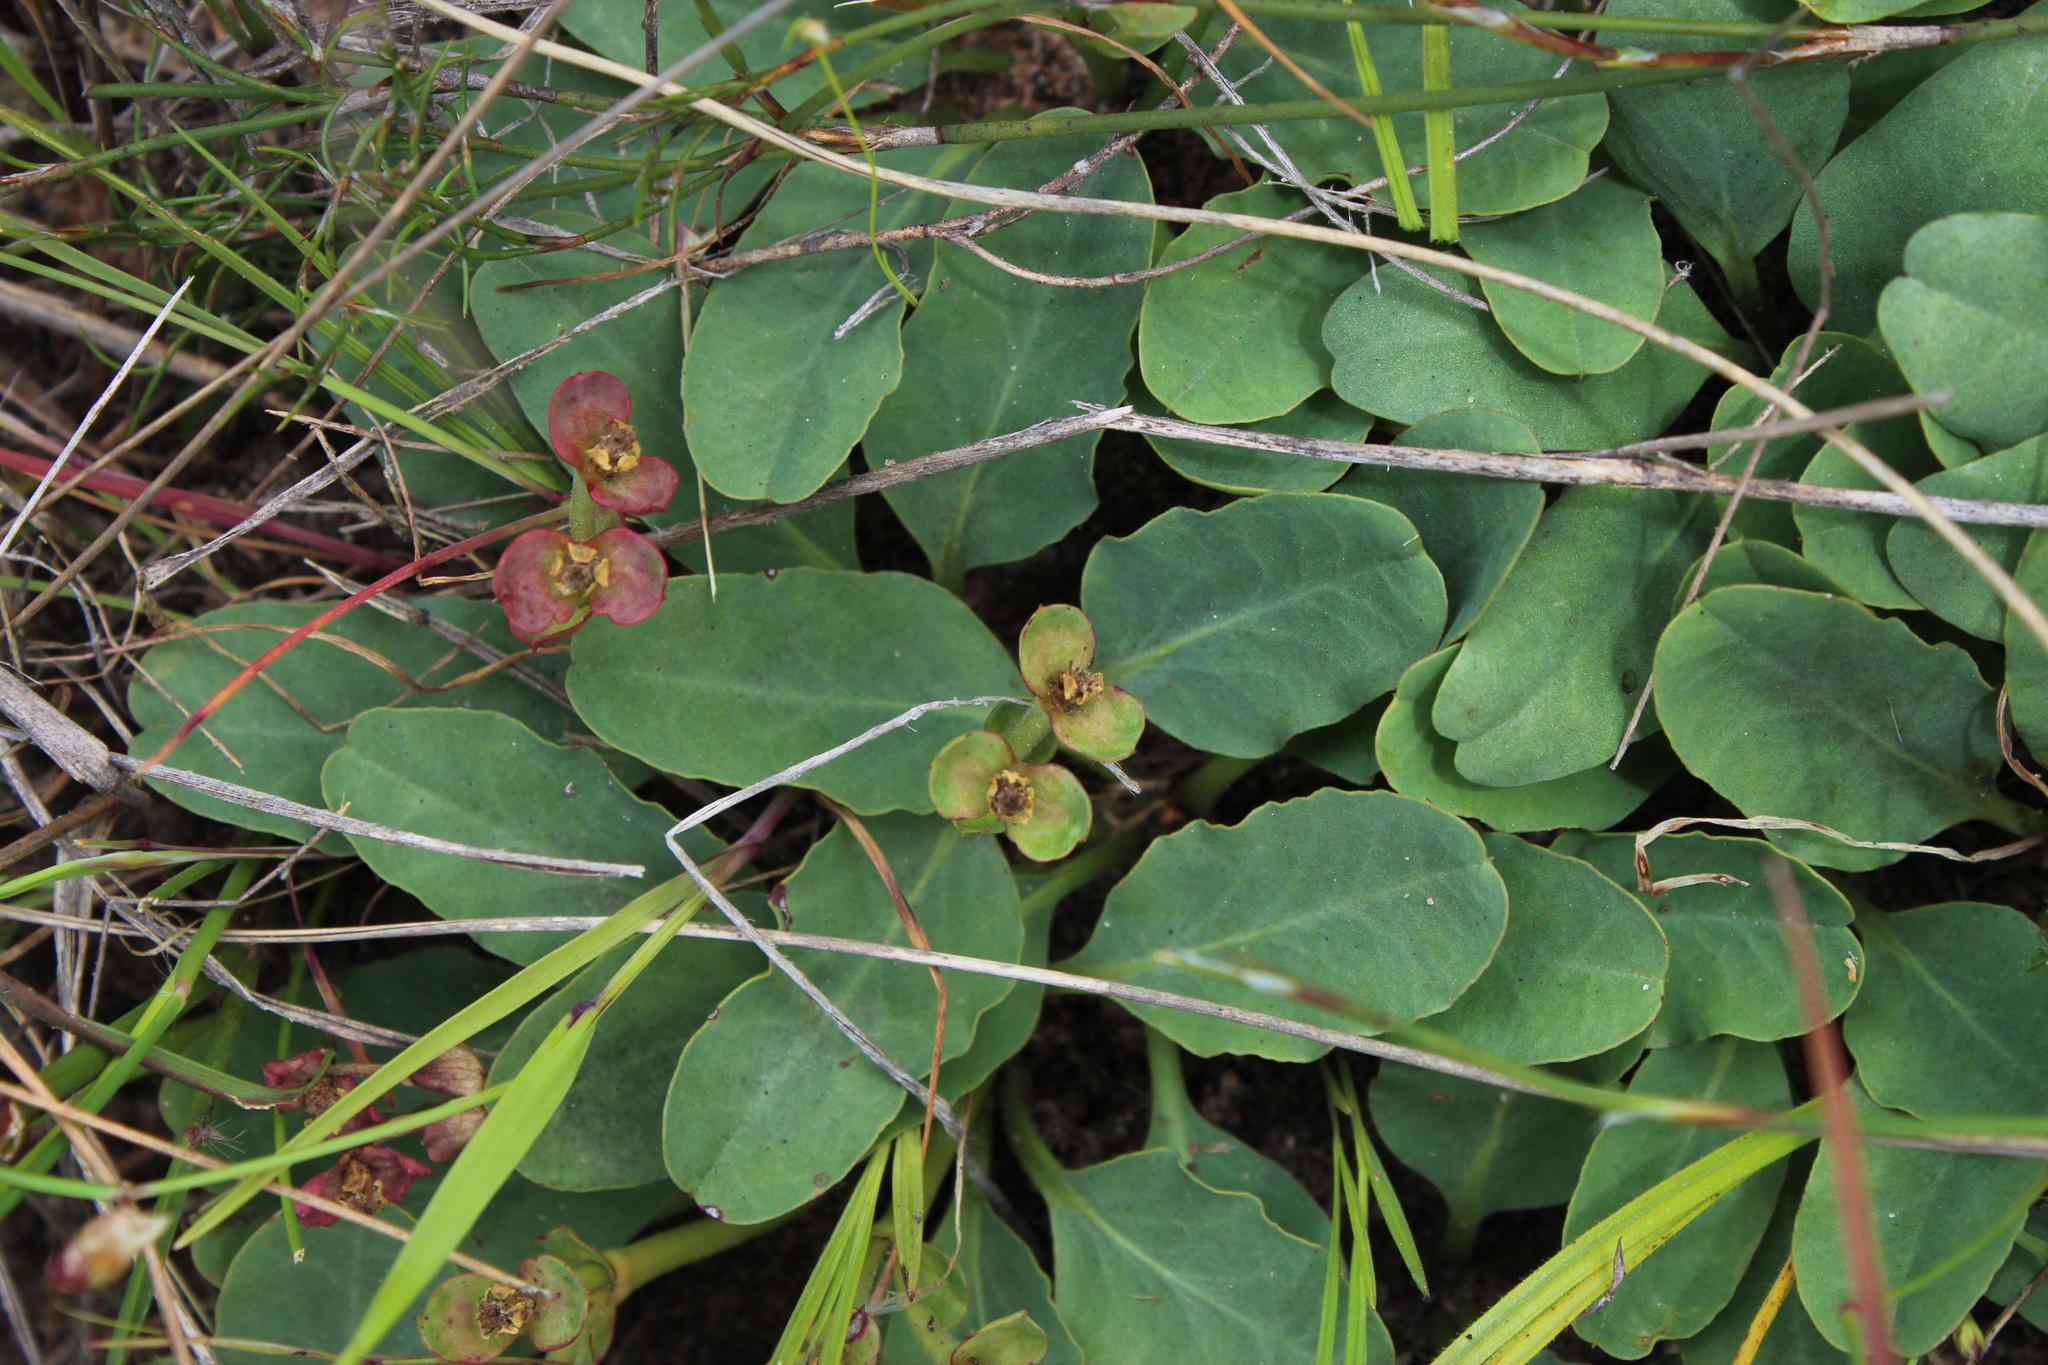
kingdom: Plantae
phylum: Tracheophyta
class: Magnoliopsida
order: Malpighiales
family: Euphorbiaceae
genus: Euphorbia
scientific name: Euphorbia tuberosa
